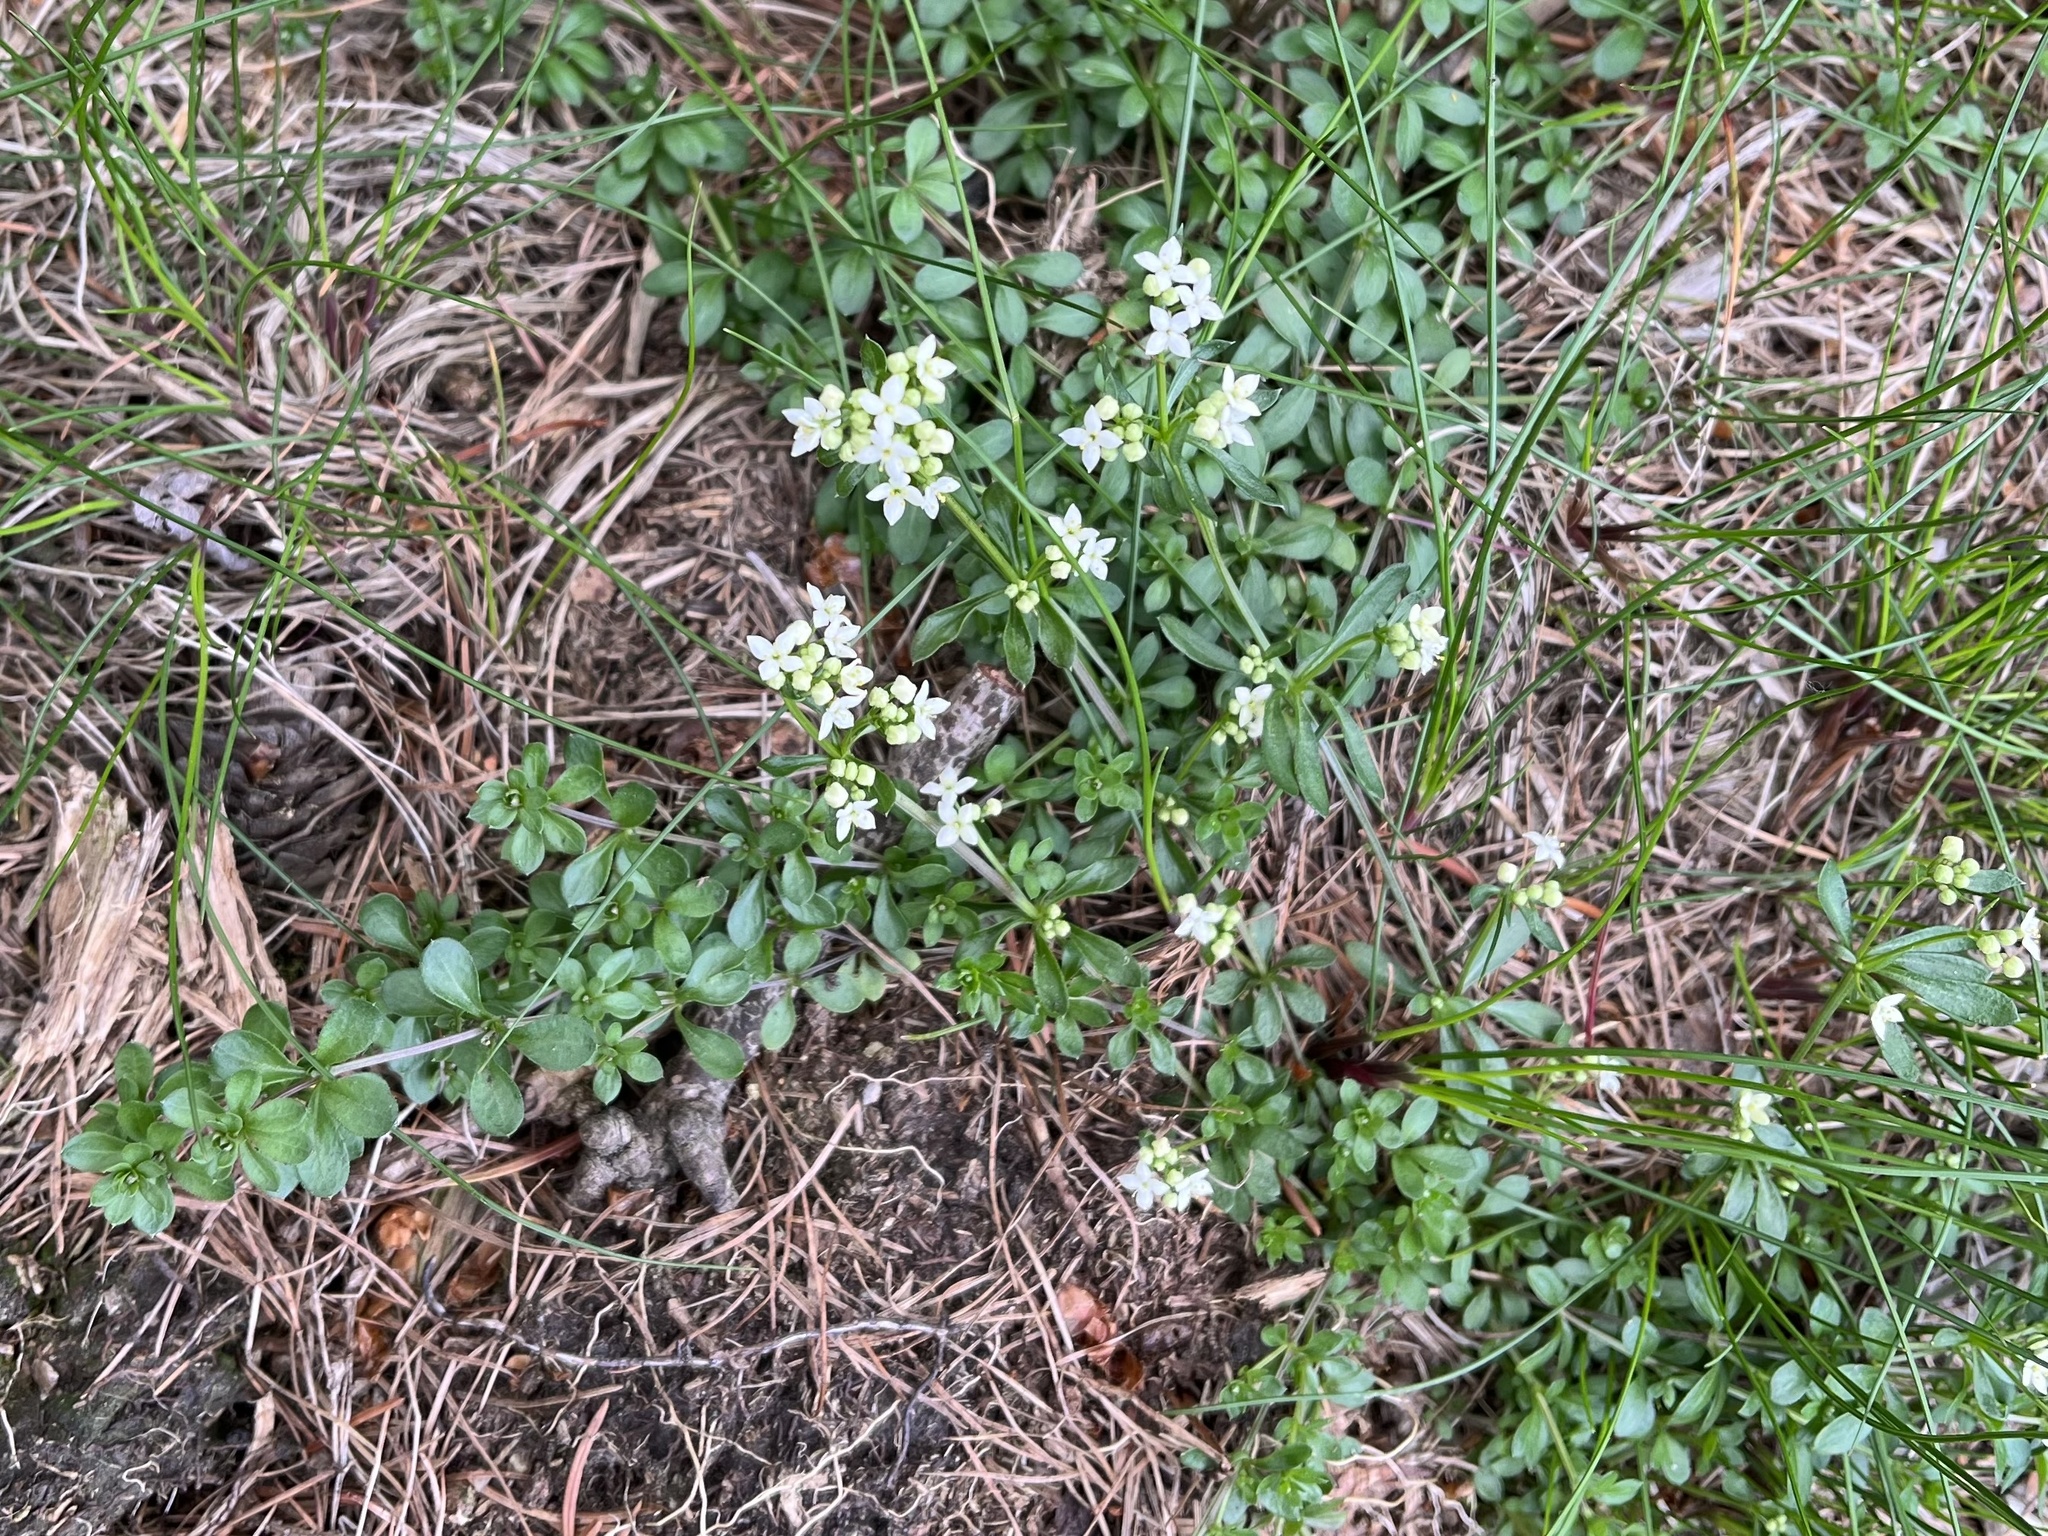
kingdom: Plantae
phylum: Tracheophyta
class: Magnoliopsida
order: Gentianales
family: Rubiaceae
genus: Galium
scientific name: Galium saxatile
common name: Heath bedstraw
